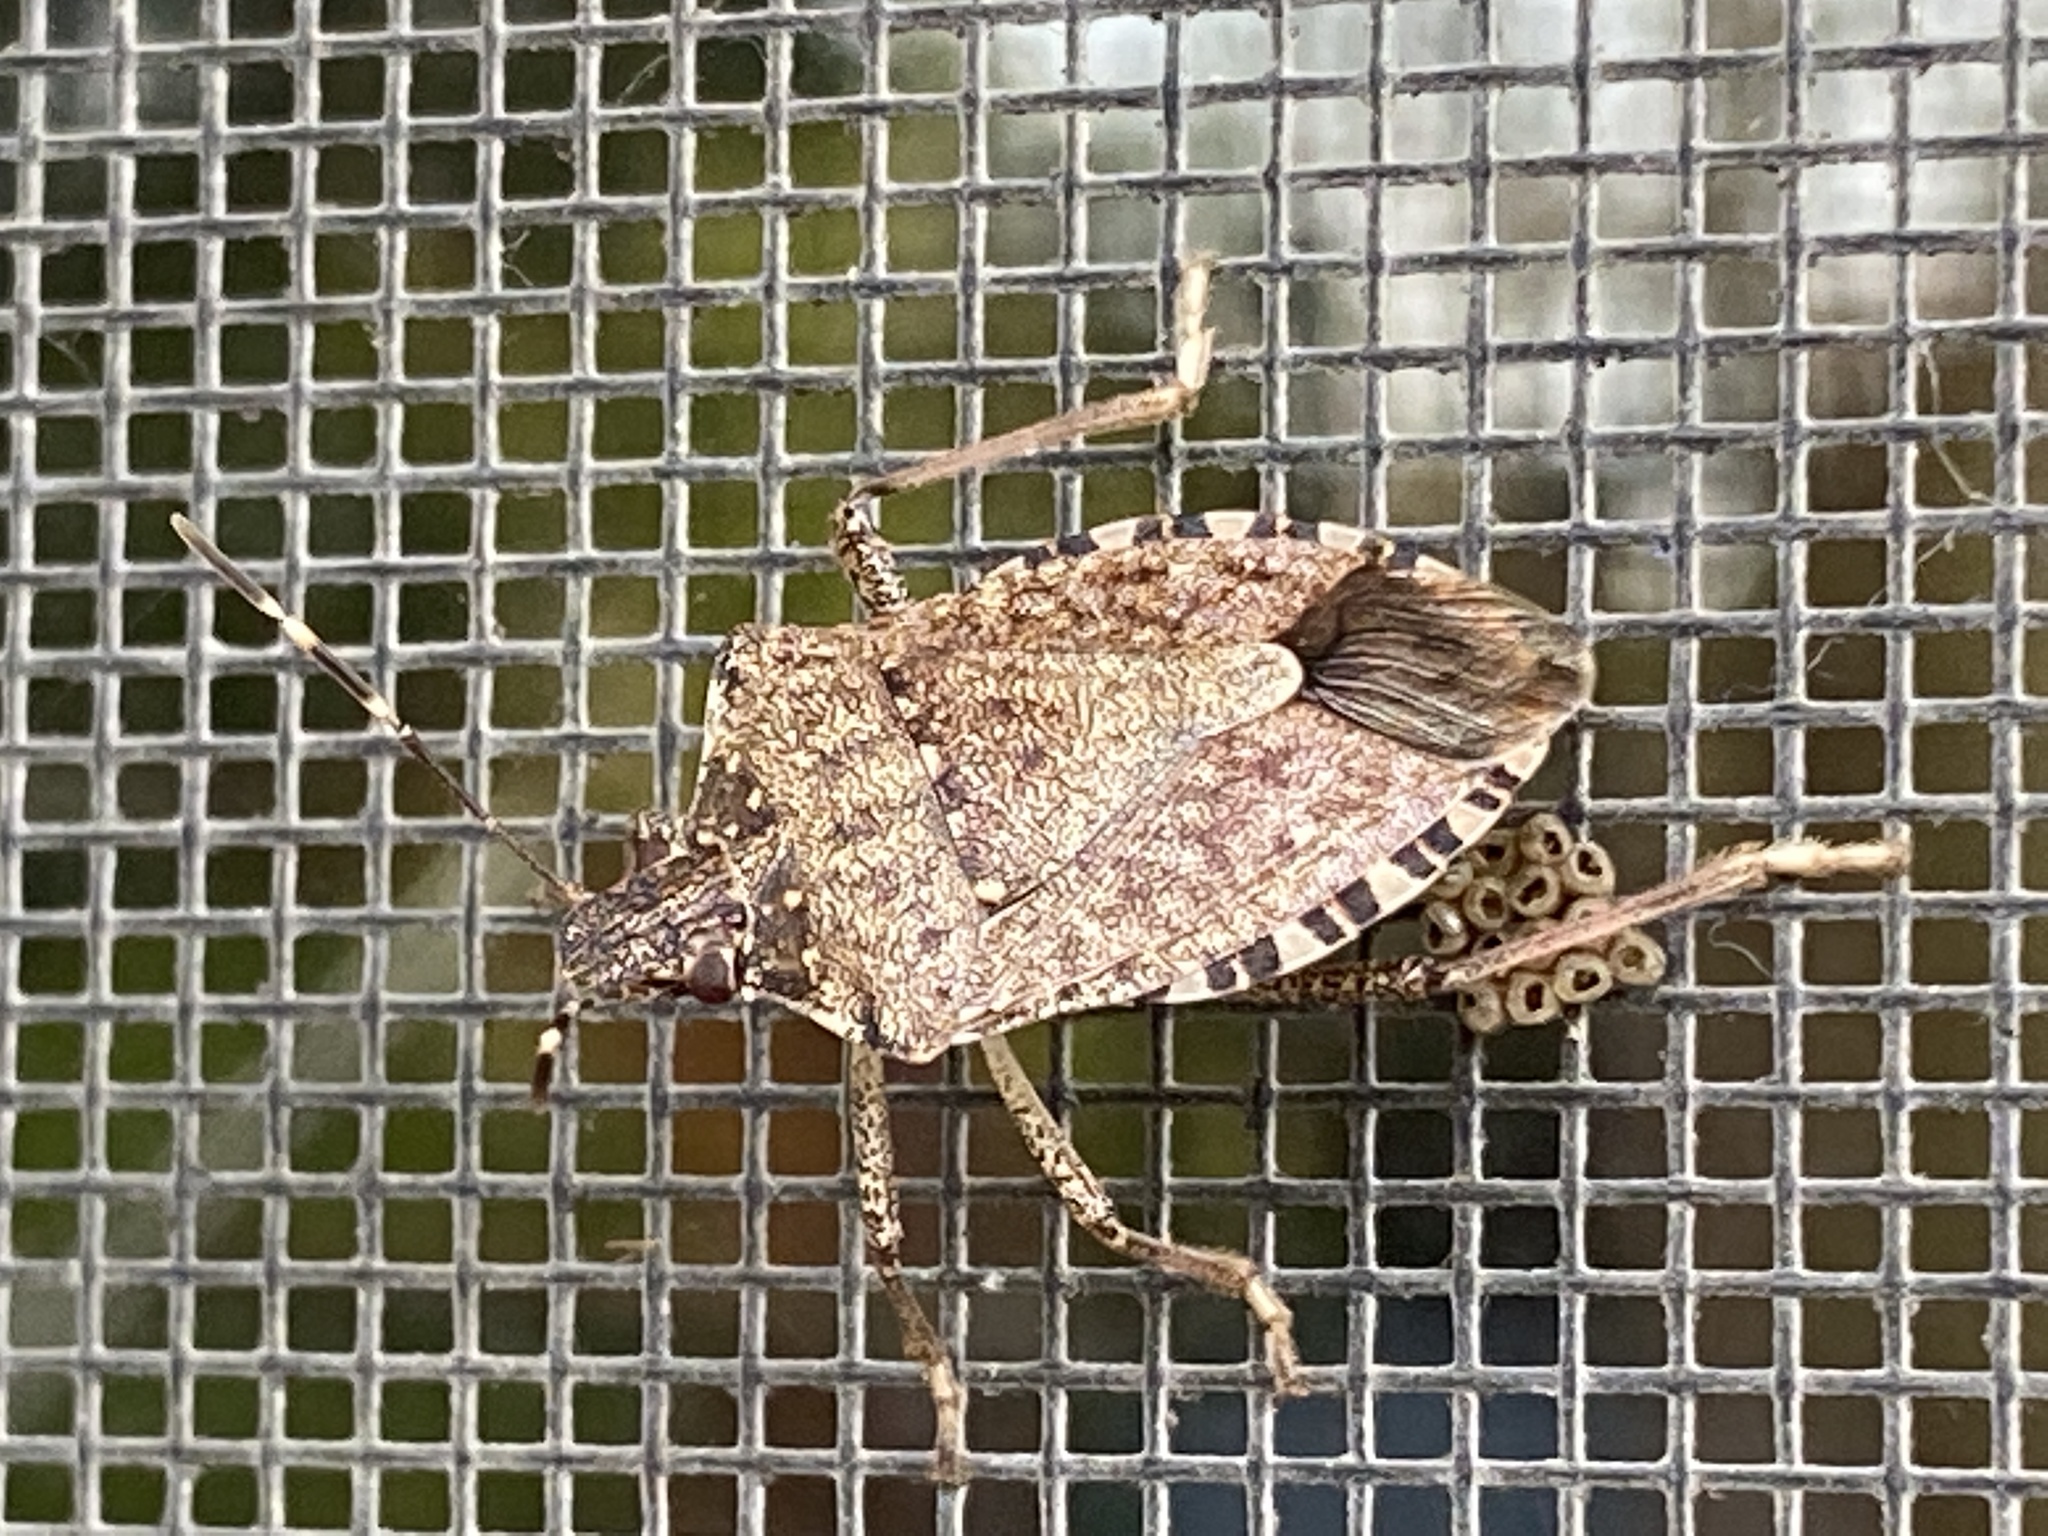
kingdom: Animalia
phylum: Arthropoda
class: Insecta
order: Hemiptera
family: Pentatomidae
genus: Halyomorpha
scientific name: Halyomorpha halys
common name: Brown marmorated stink bug
